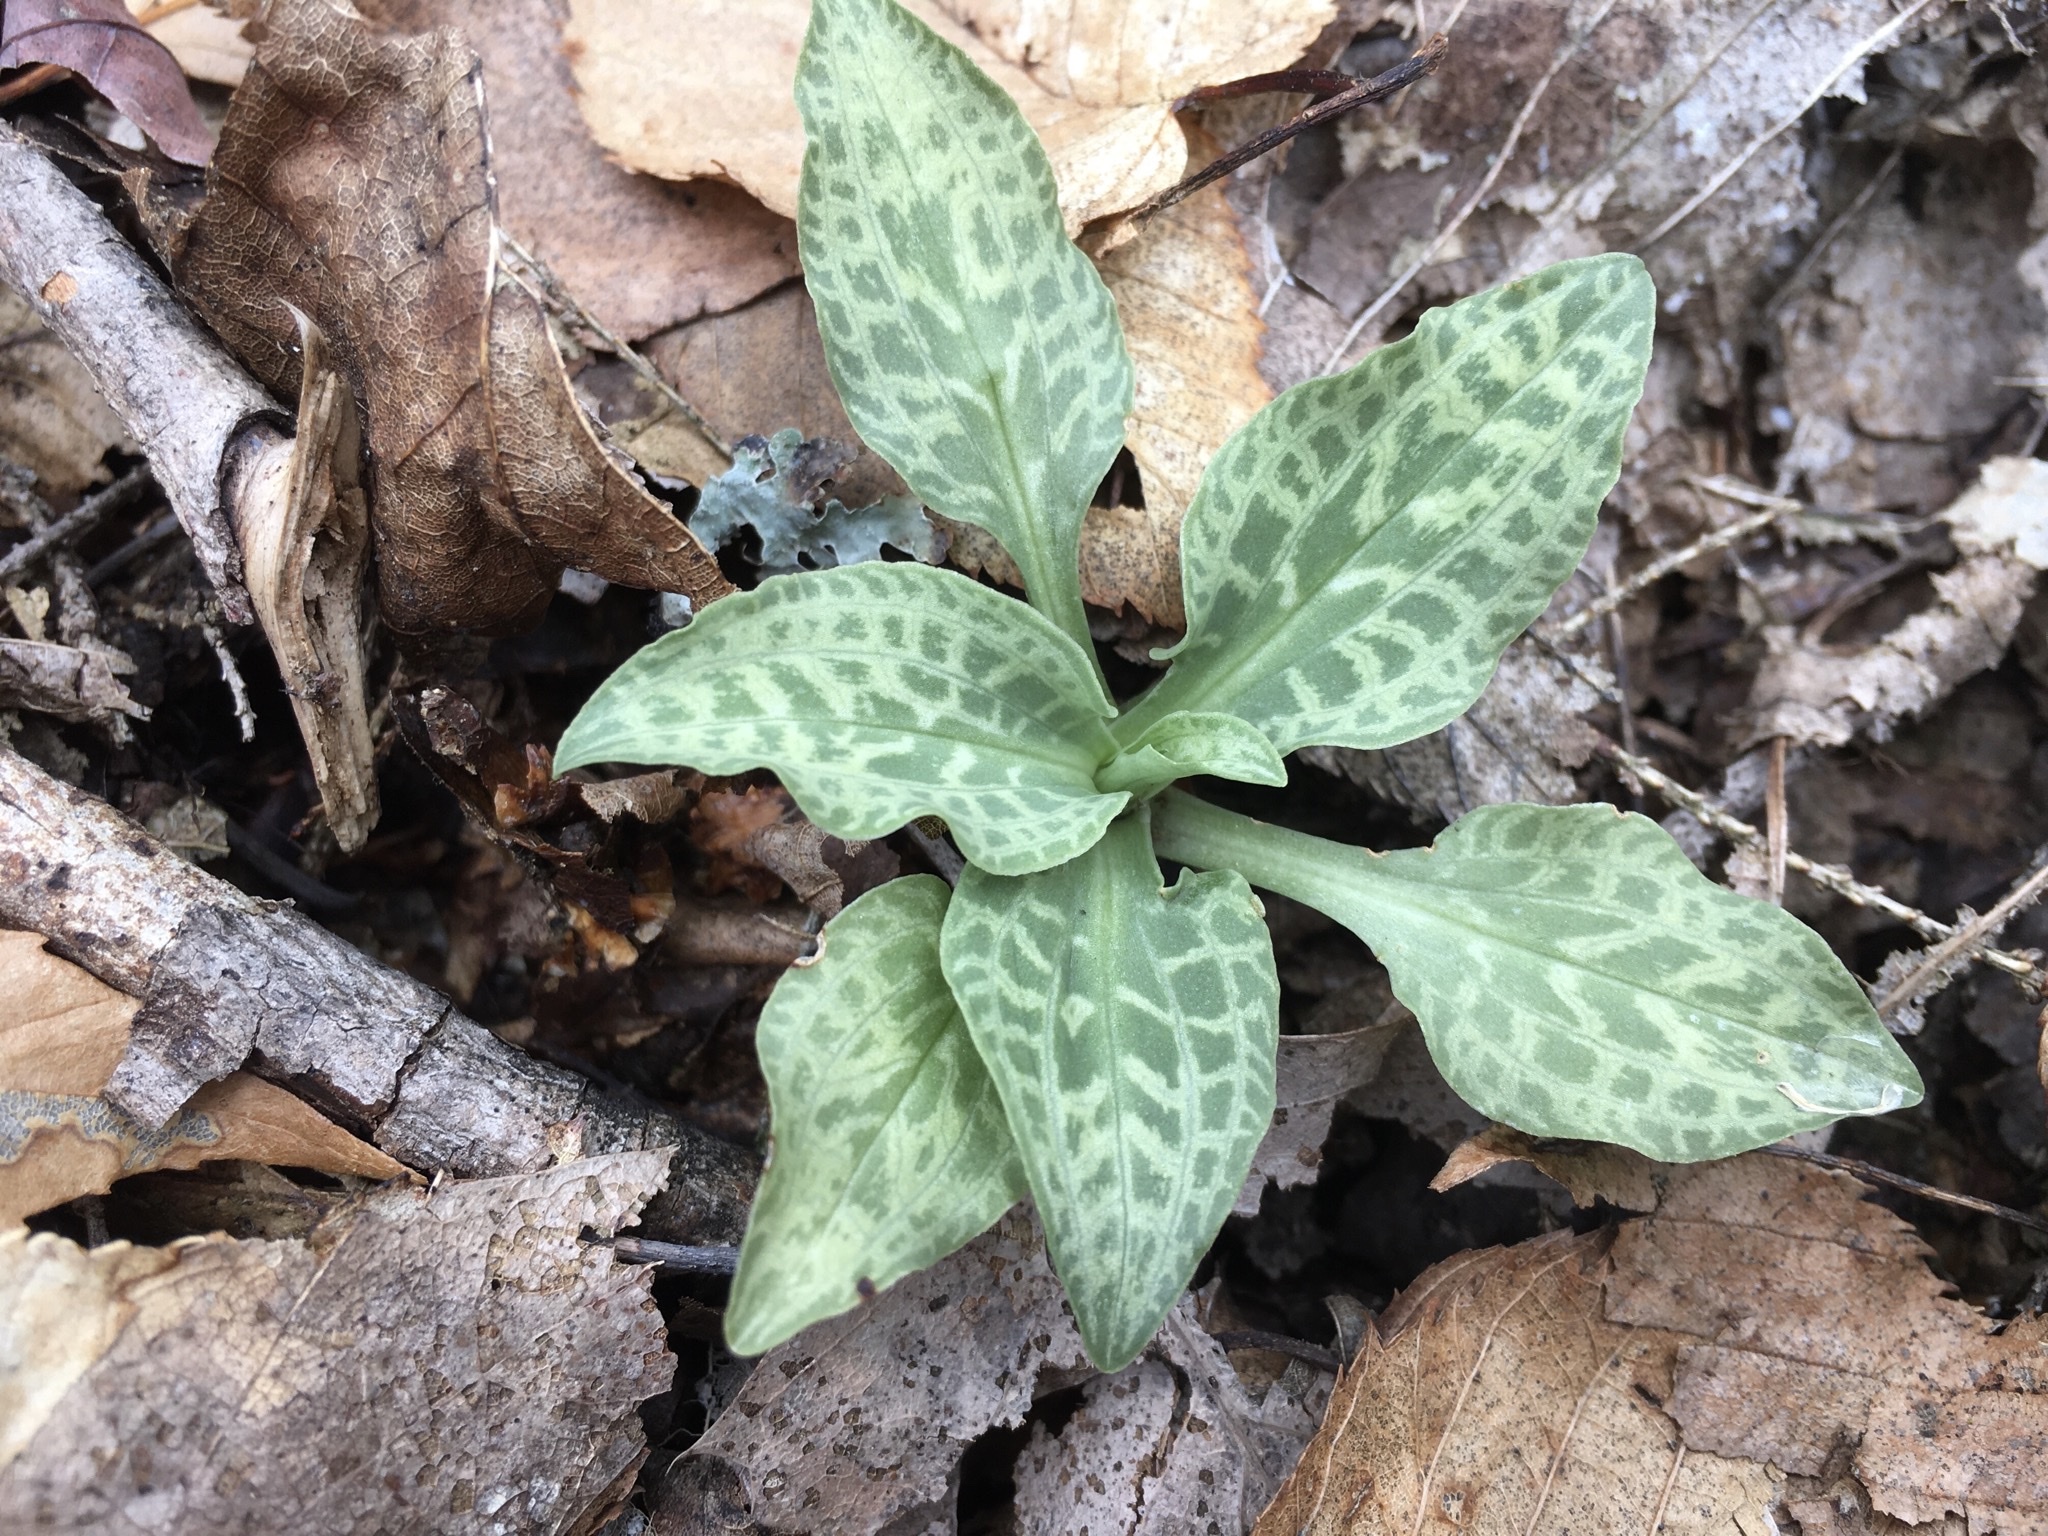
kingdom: Plantae
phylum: Tracheophyta
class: Liliopsida
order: Asparagales
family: Orchidaceae
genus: Goodyera
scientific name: Goodyera tesselata
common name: Checkered rattlesnake-plantain
